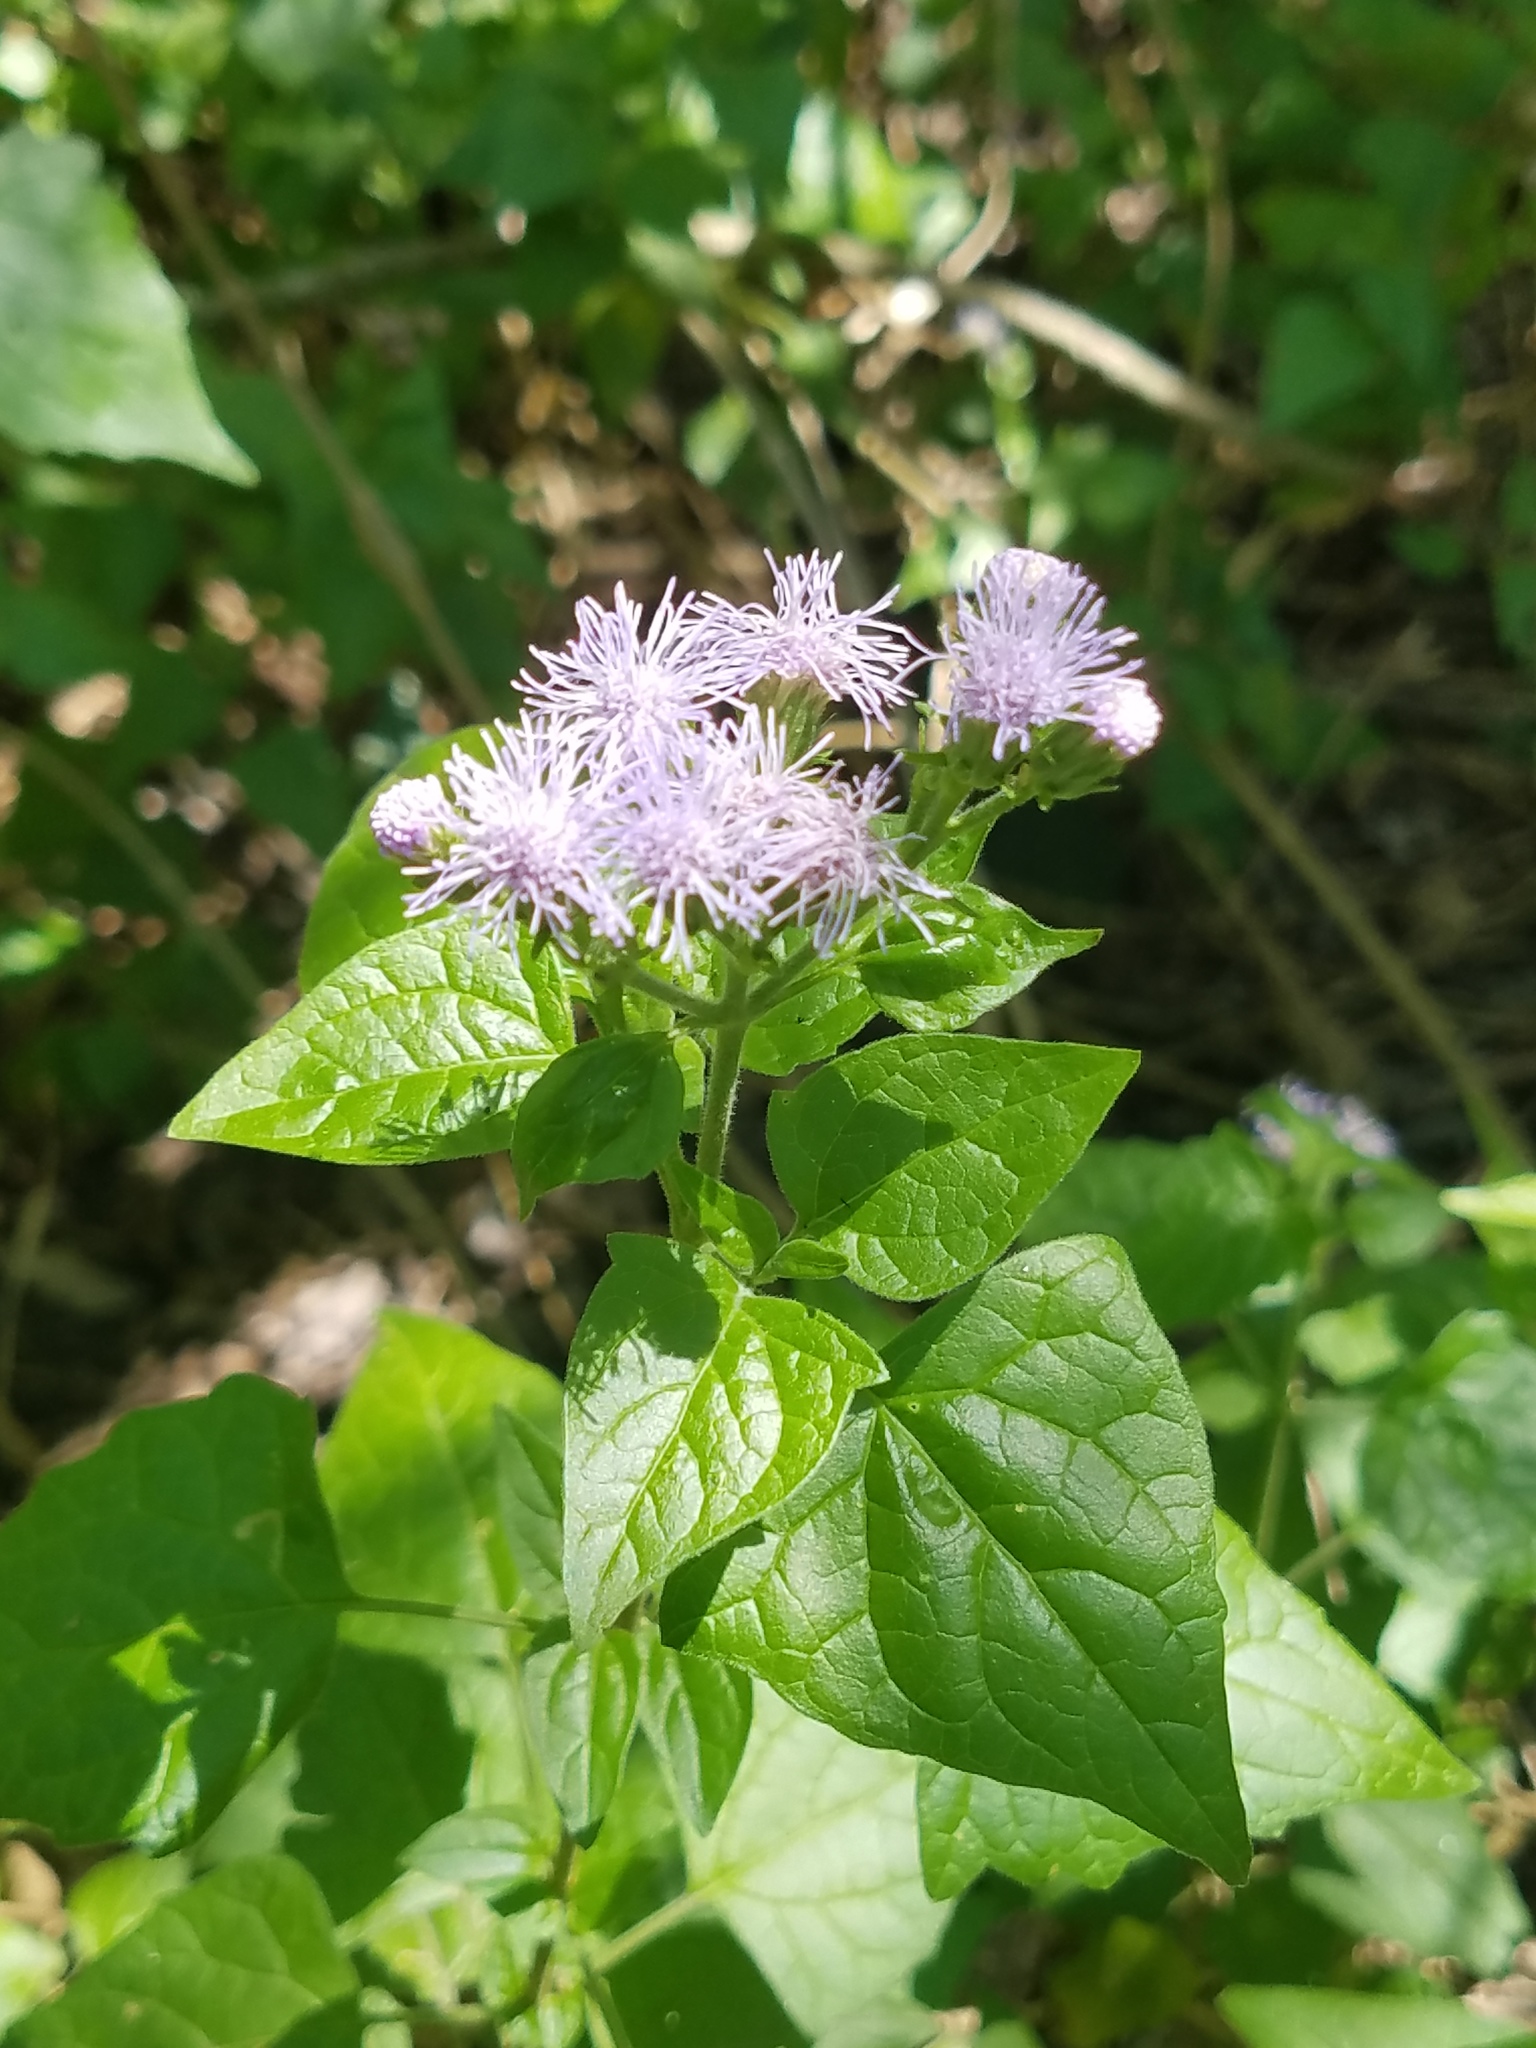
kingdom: Plantae
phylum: Tracheophyta
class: Magnoliopsida
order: Asterales
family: Asteraceae
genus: Tamaulipa
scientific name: Tamaulipa azurea
